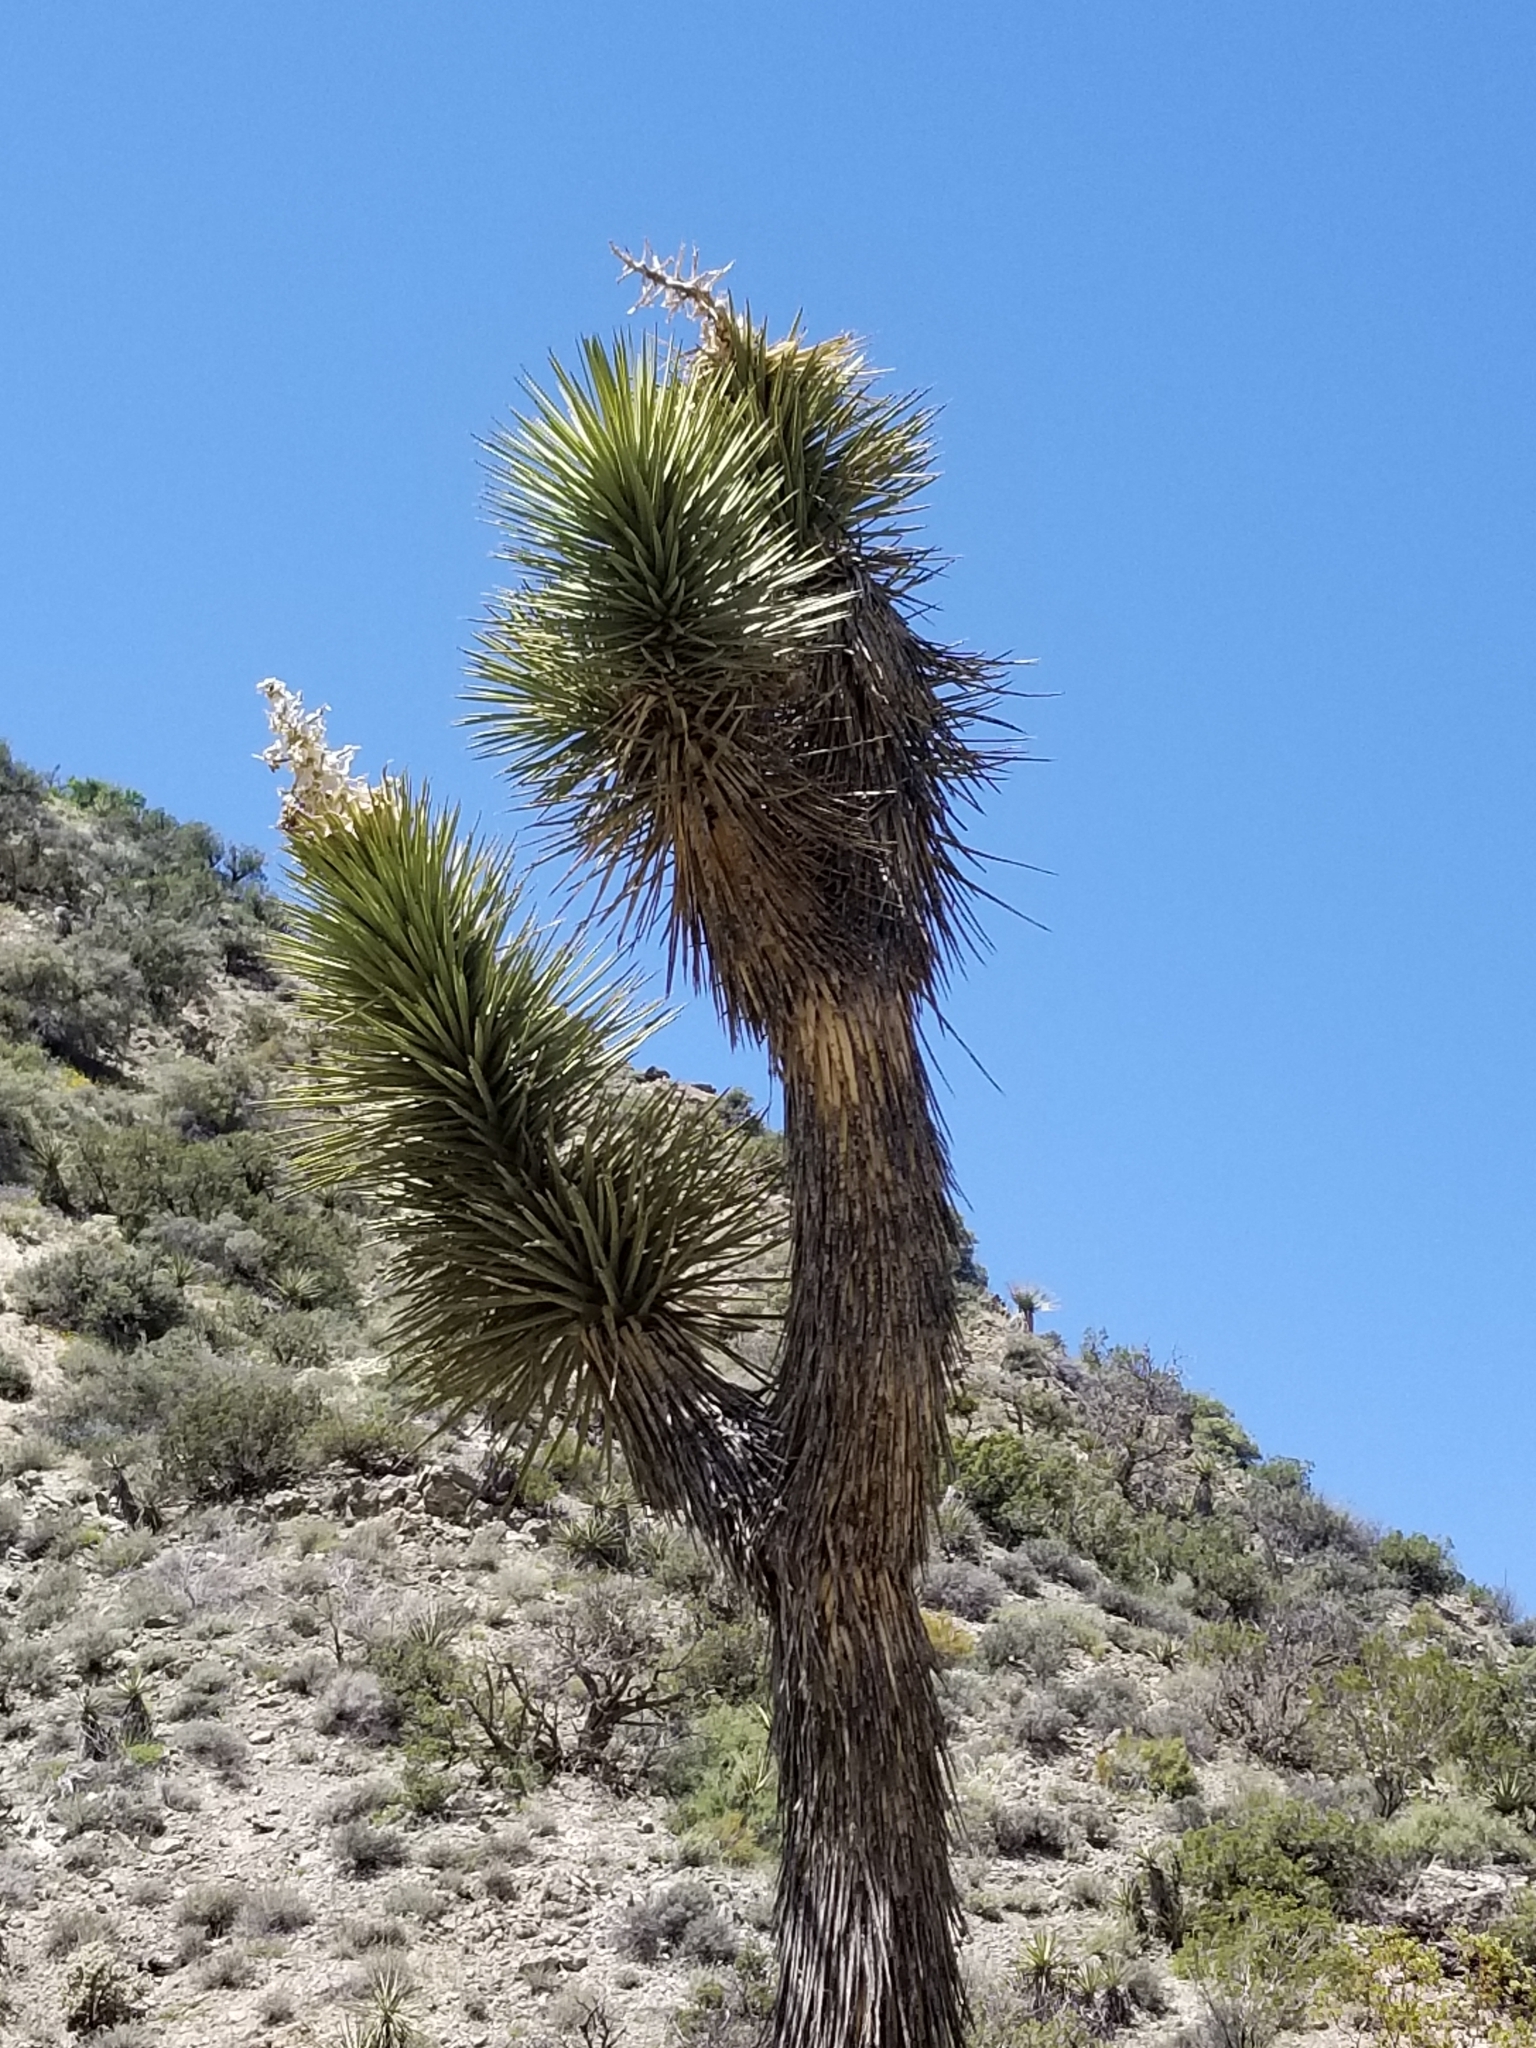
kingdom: Plantae
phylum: Tracheophyta
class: Liliopsida
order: Asparagales
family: Asparagaceae
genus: Yucca
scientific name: Yucca brevifolia
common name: Joshua tree
